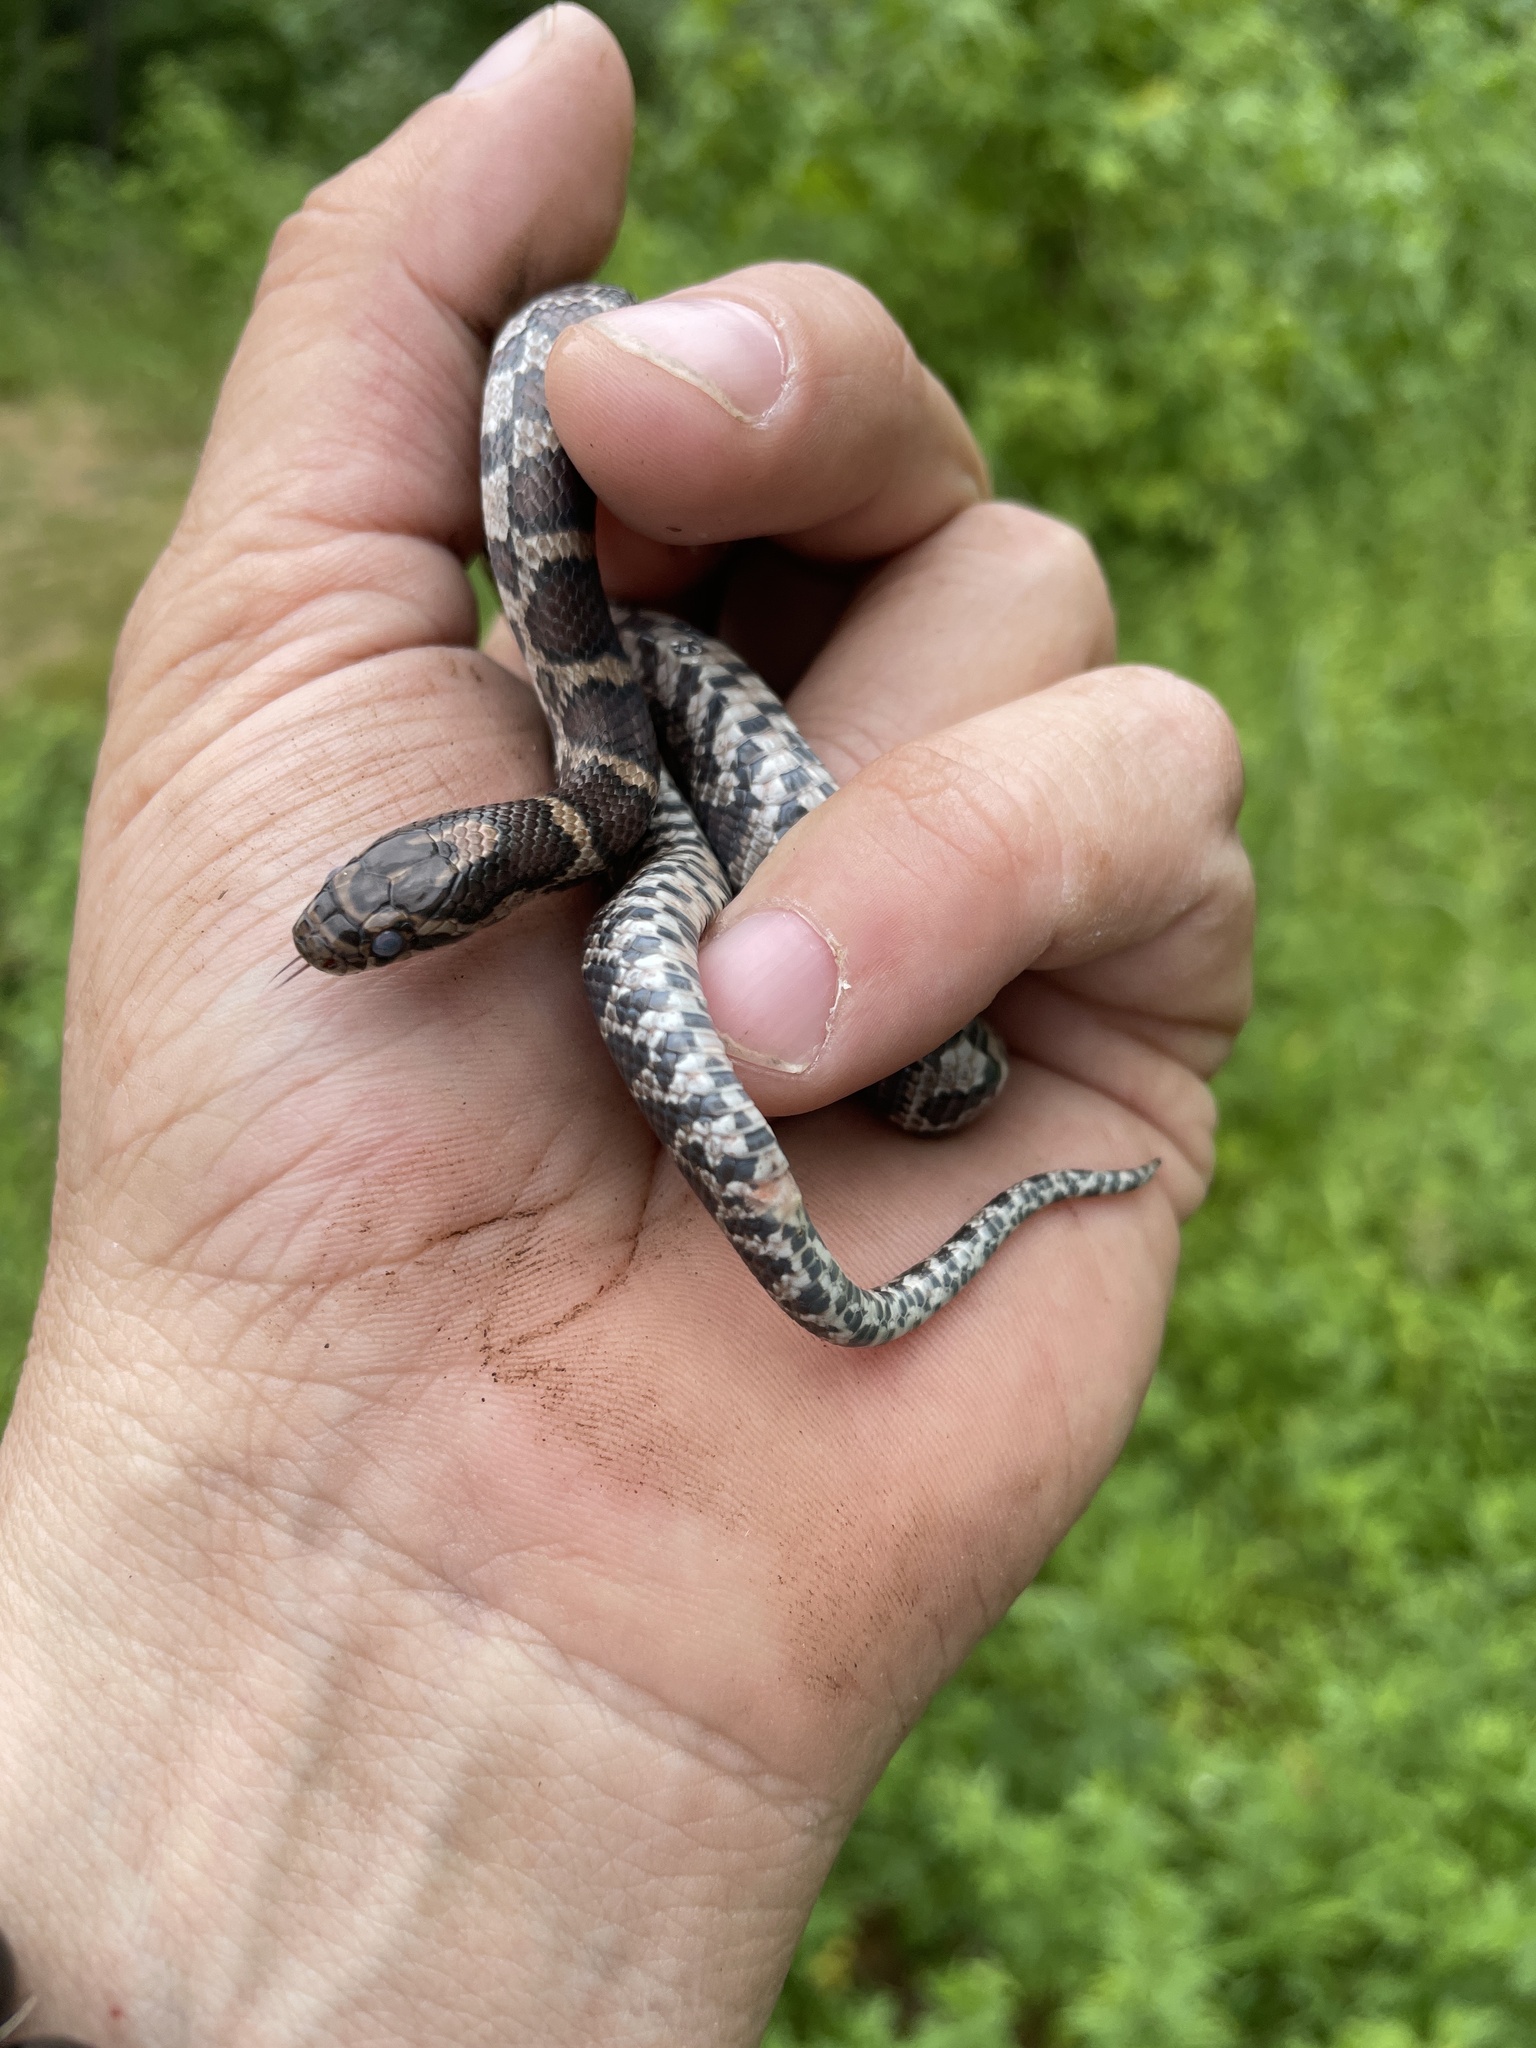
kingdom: Animalia
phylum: Chordata
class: Squamata
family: Colubridae
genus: Lampropeltis
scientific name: Lampropeltis triangulum
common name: Eastern milksnake
